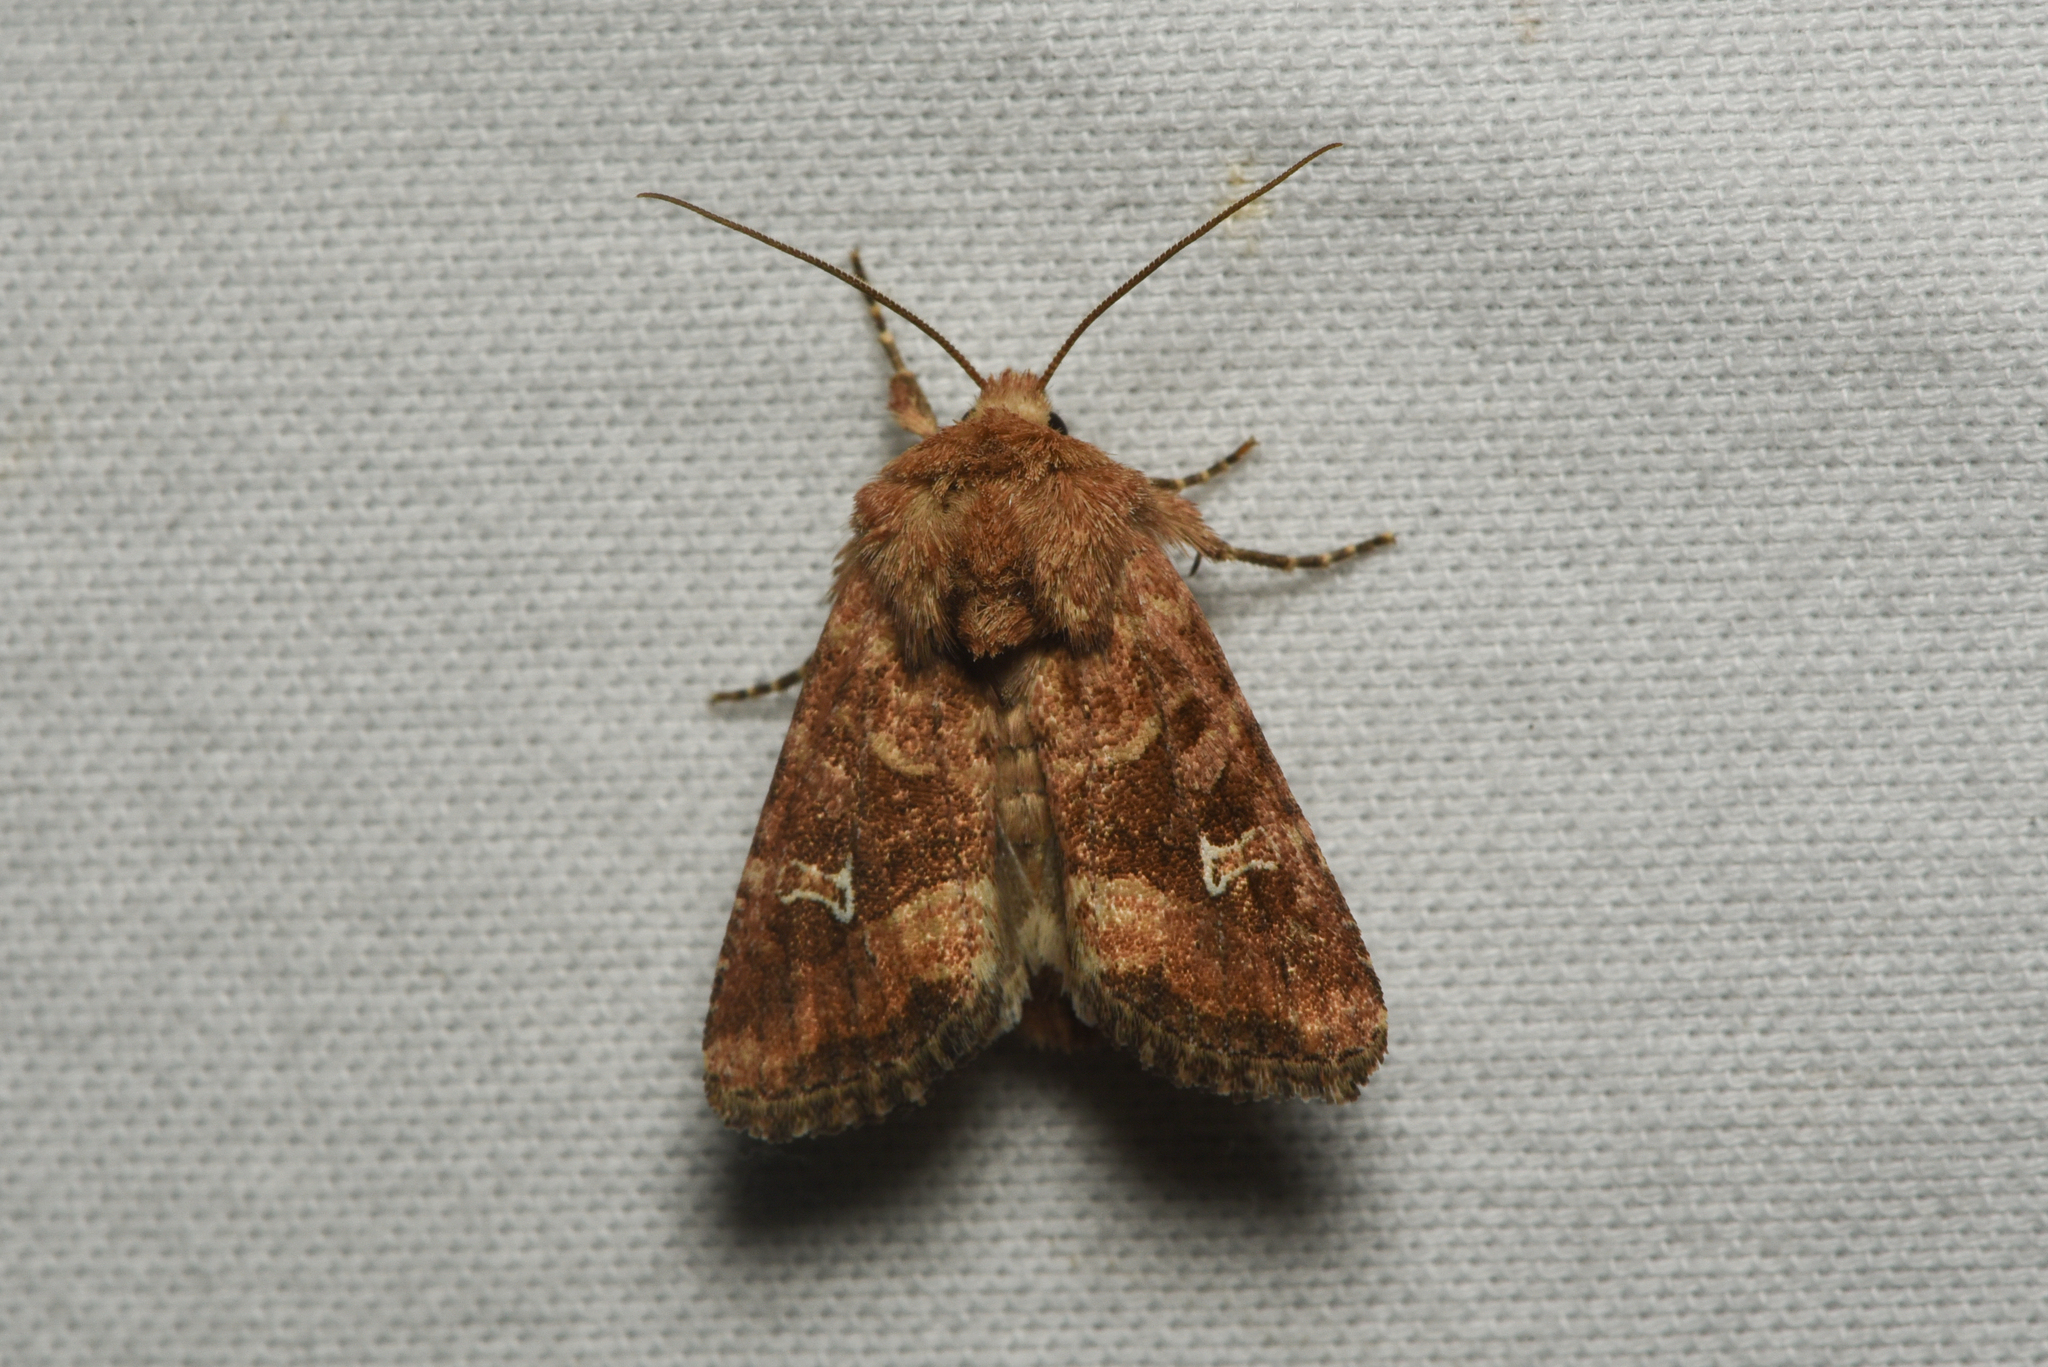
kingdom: Animalia
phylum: Arthropoda
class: Insecta
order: Lepidoptera
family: Noctuidae
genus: Lacinipolia
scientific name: Lacinipolia stricta
